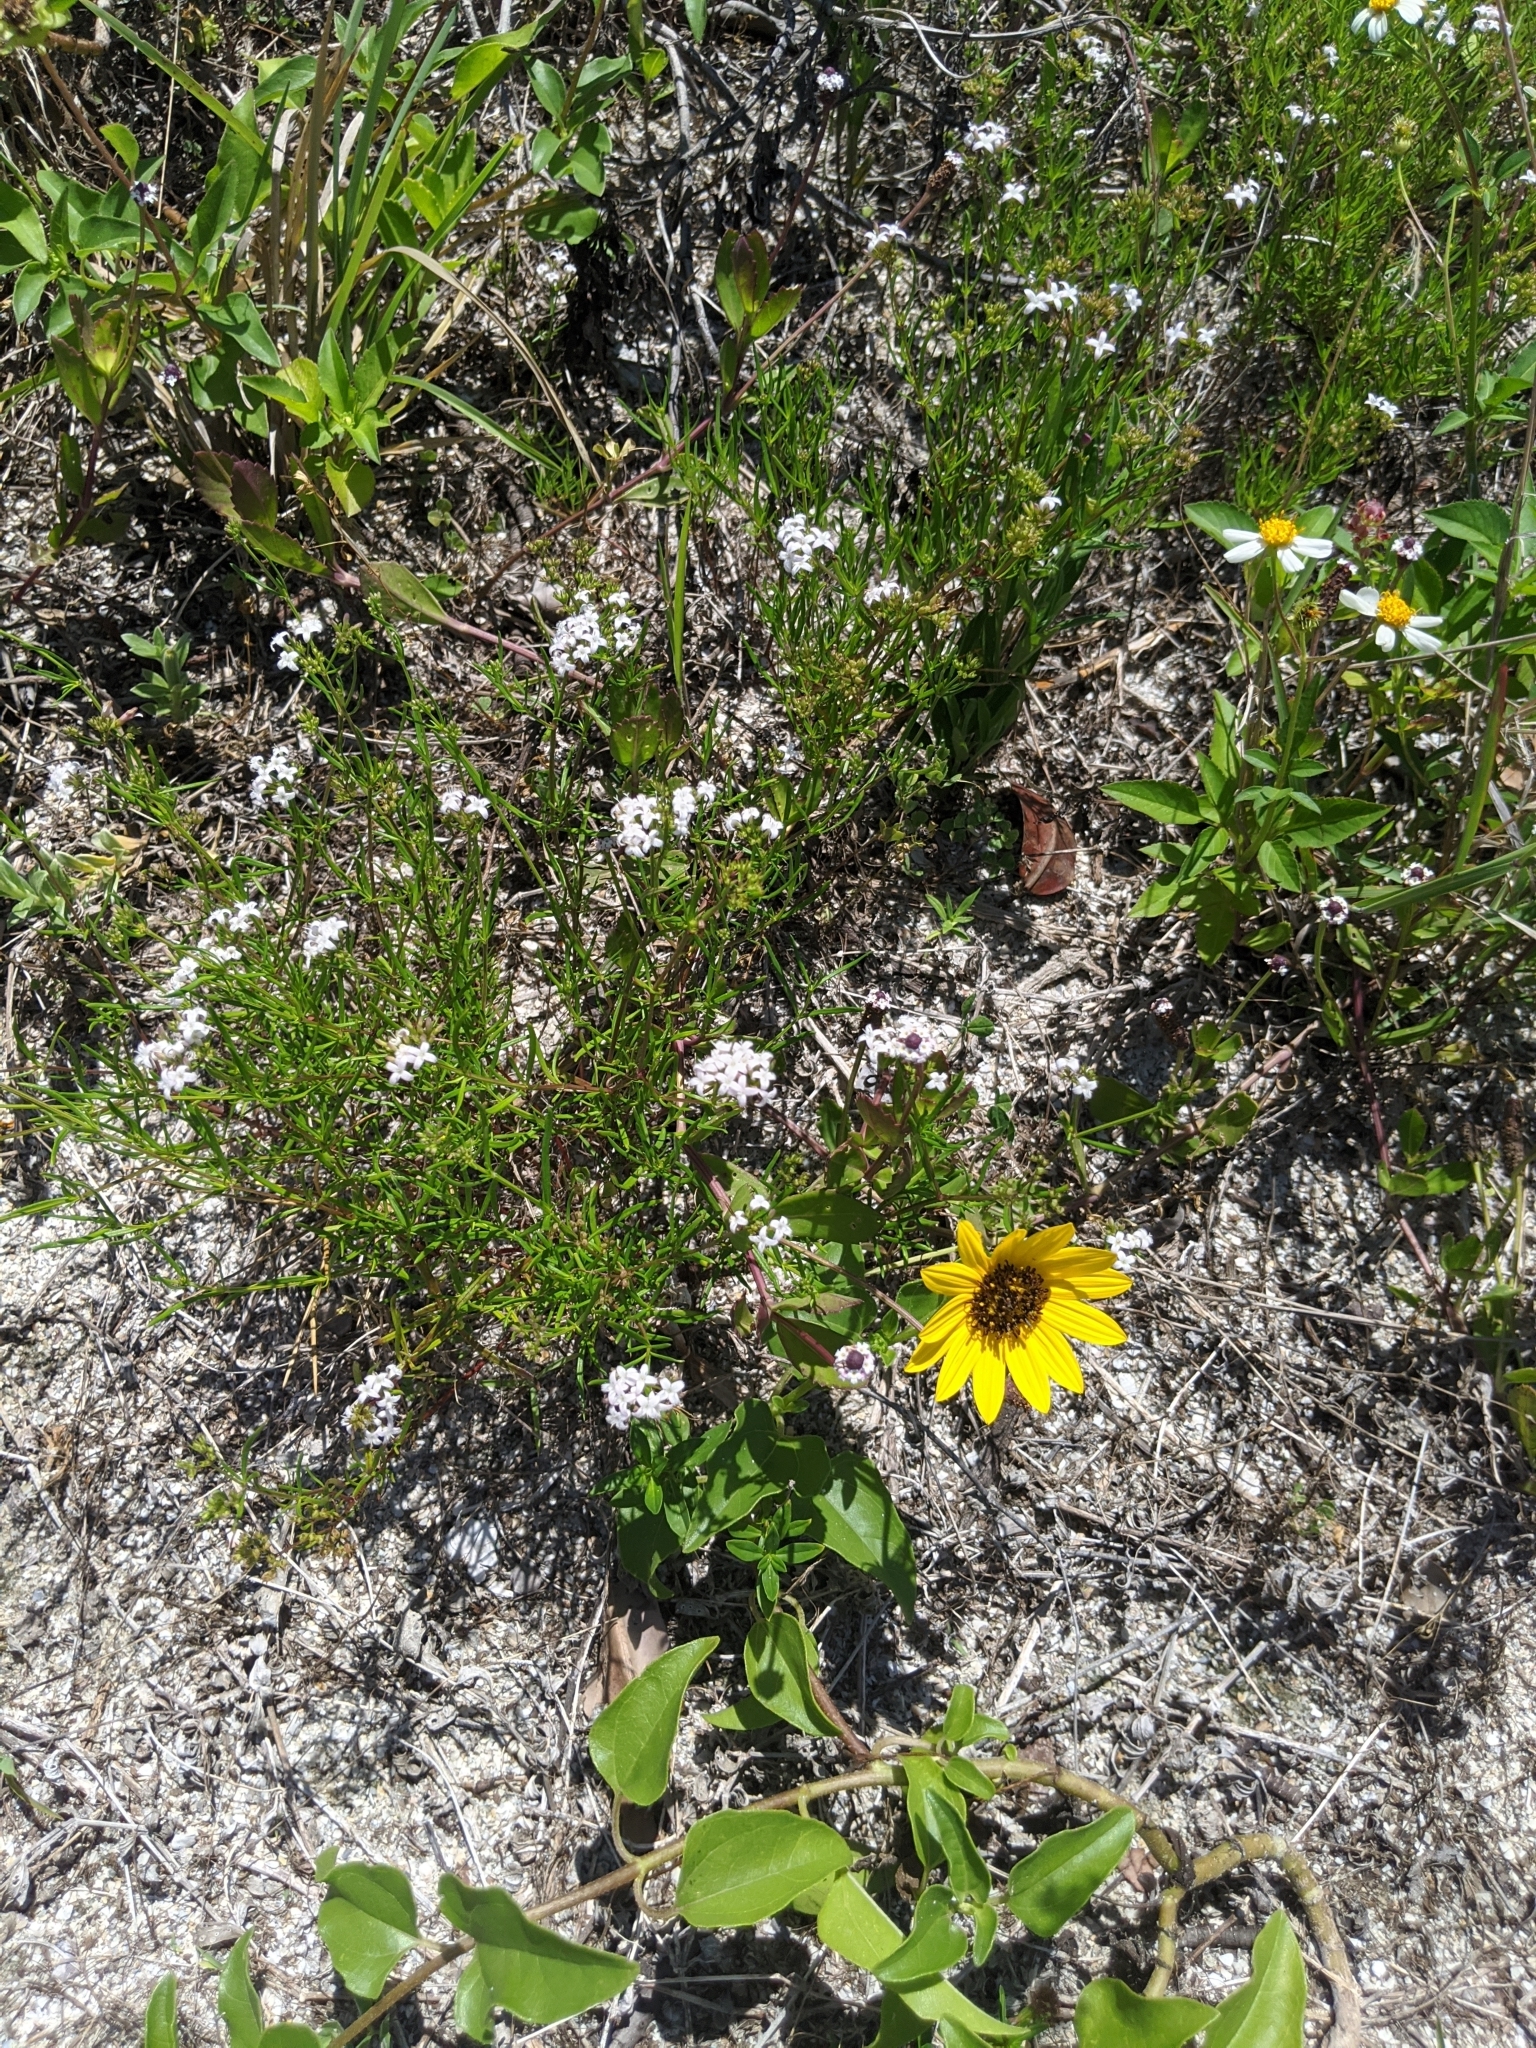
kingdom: Plantae
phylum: Tracheophyta
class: Magnoliopsida
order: Gentianales
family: Rubiaceae
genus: Stenaria
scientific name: Stenaria nigricans
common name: Diamondflowers
